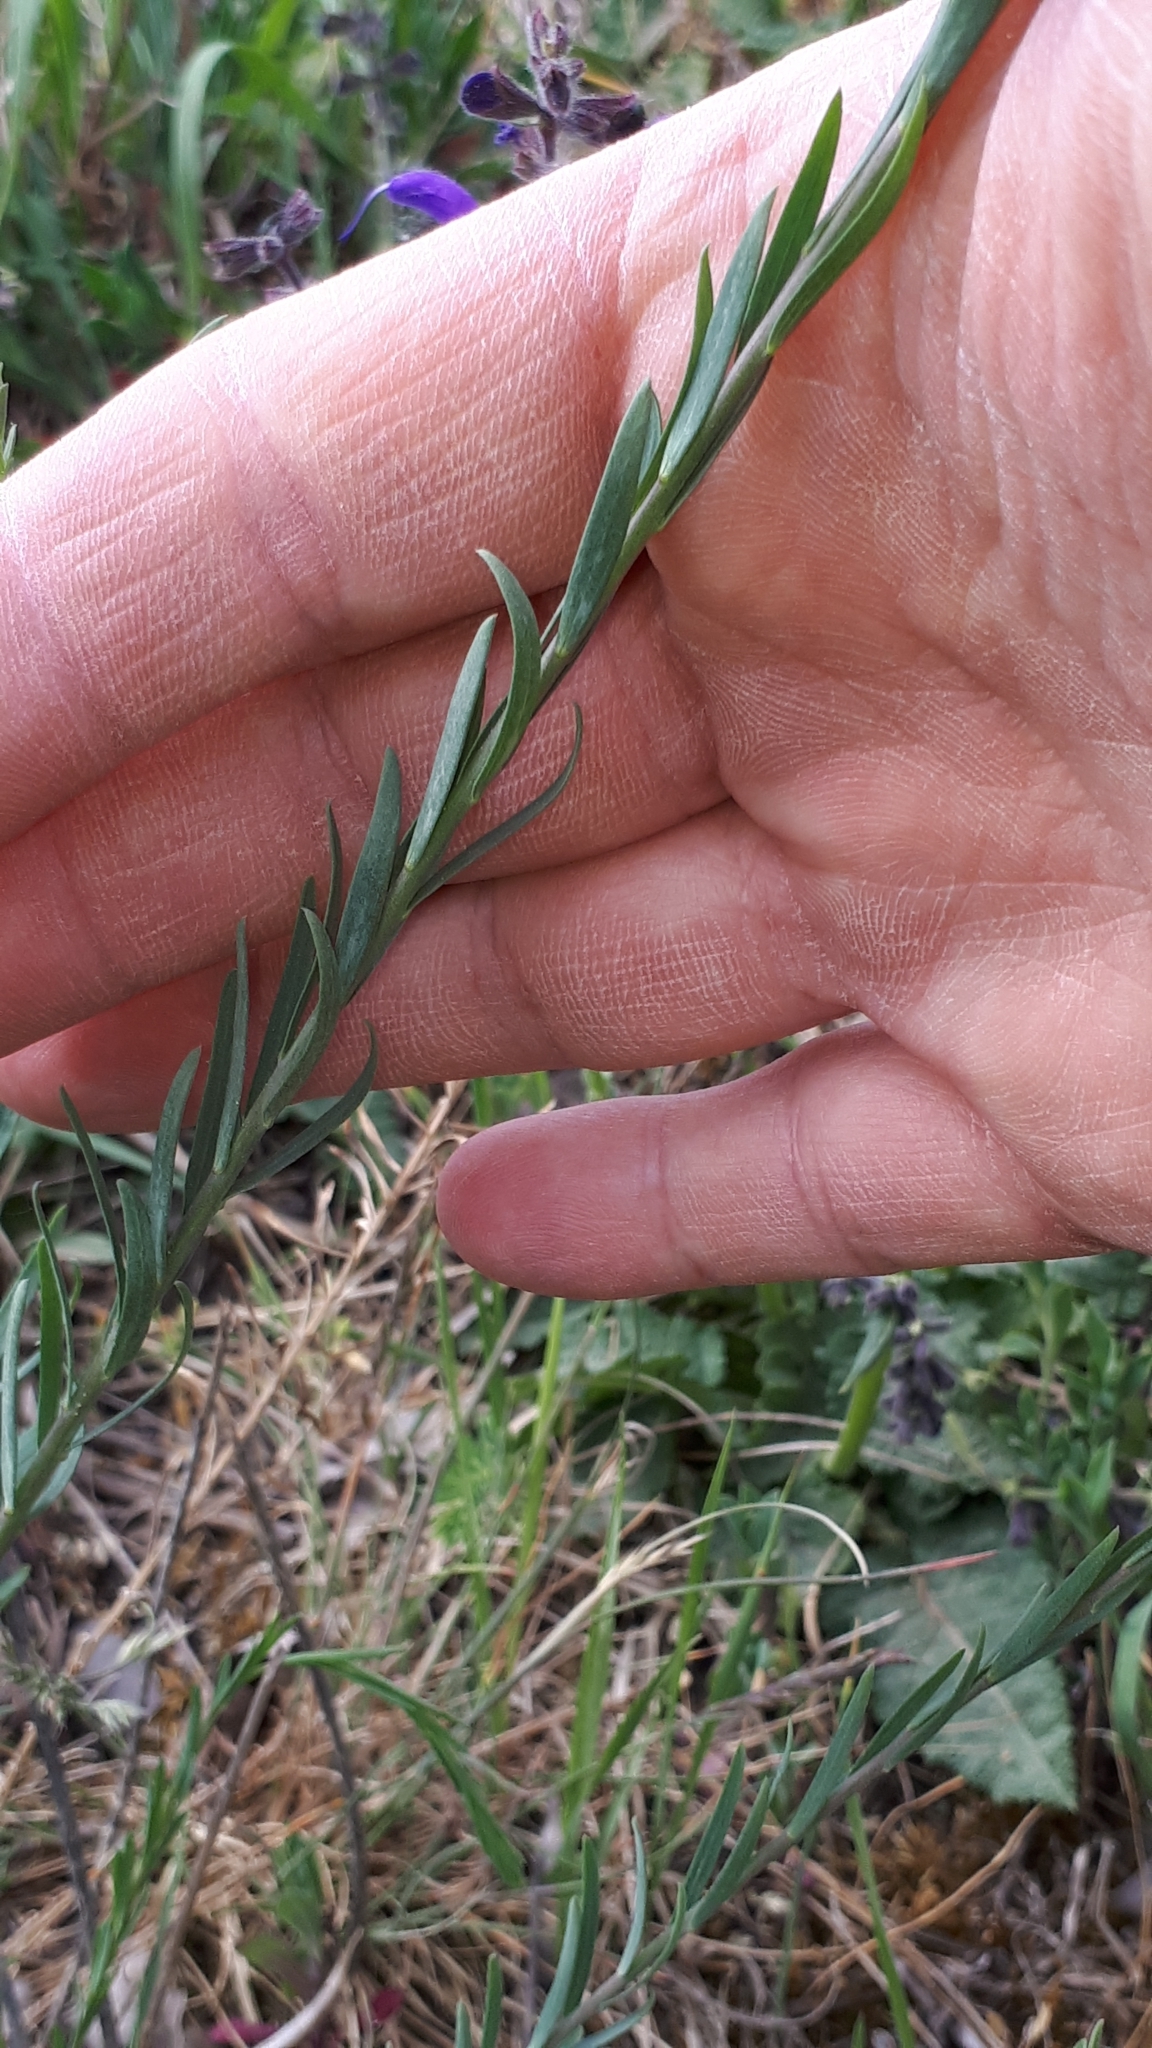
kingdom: Plantae
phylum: Tracheophyta
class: Magnoliopsida
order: Malpighiales
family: Linaceae
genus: Linum
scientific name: Linum austriacum
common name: Austrian flax
